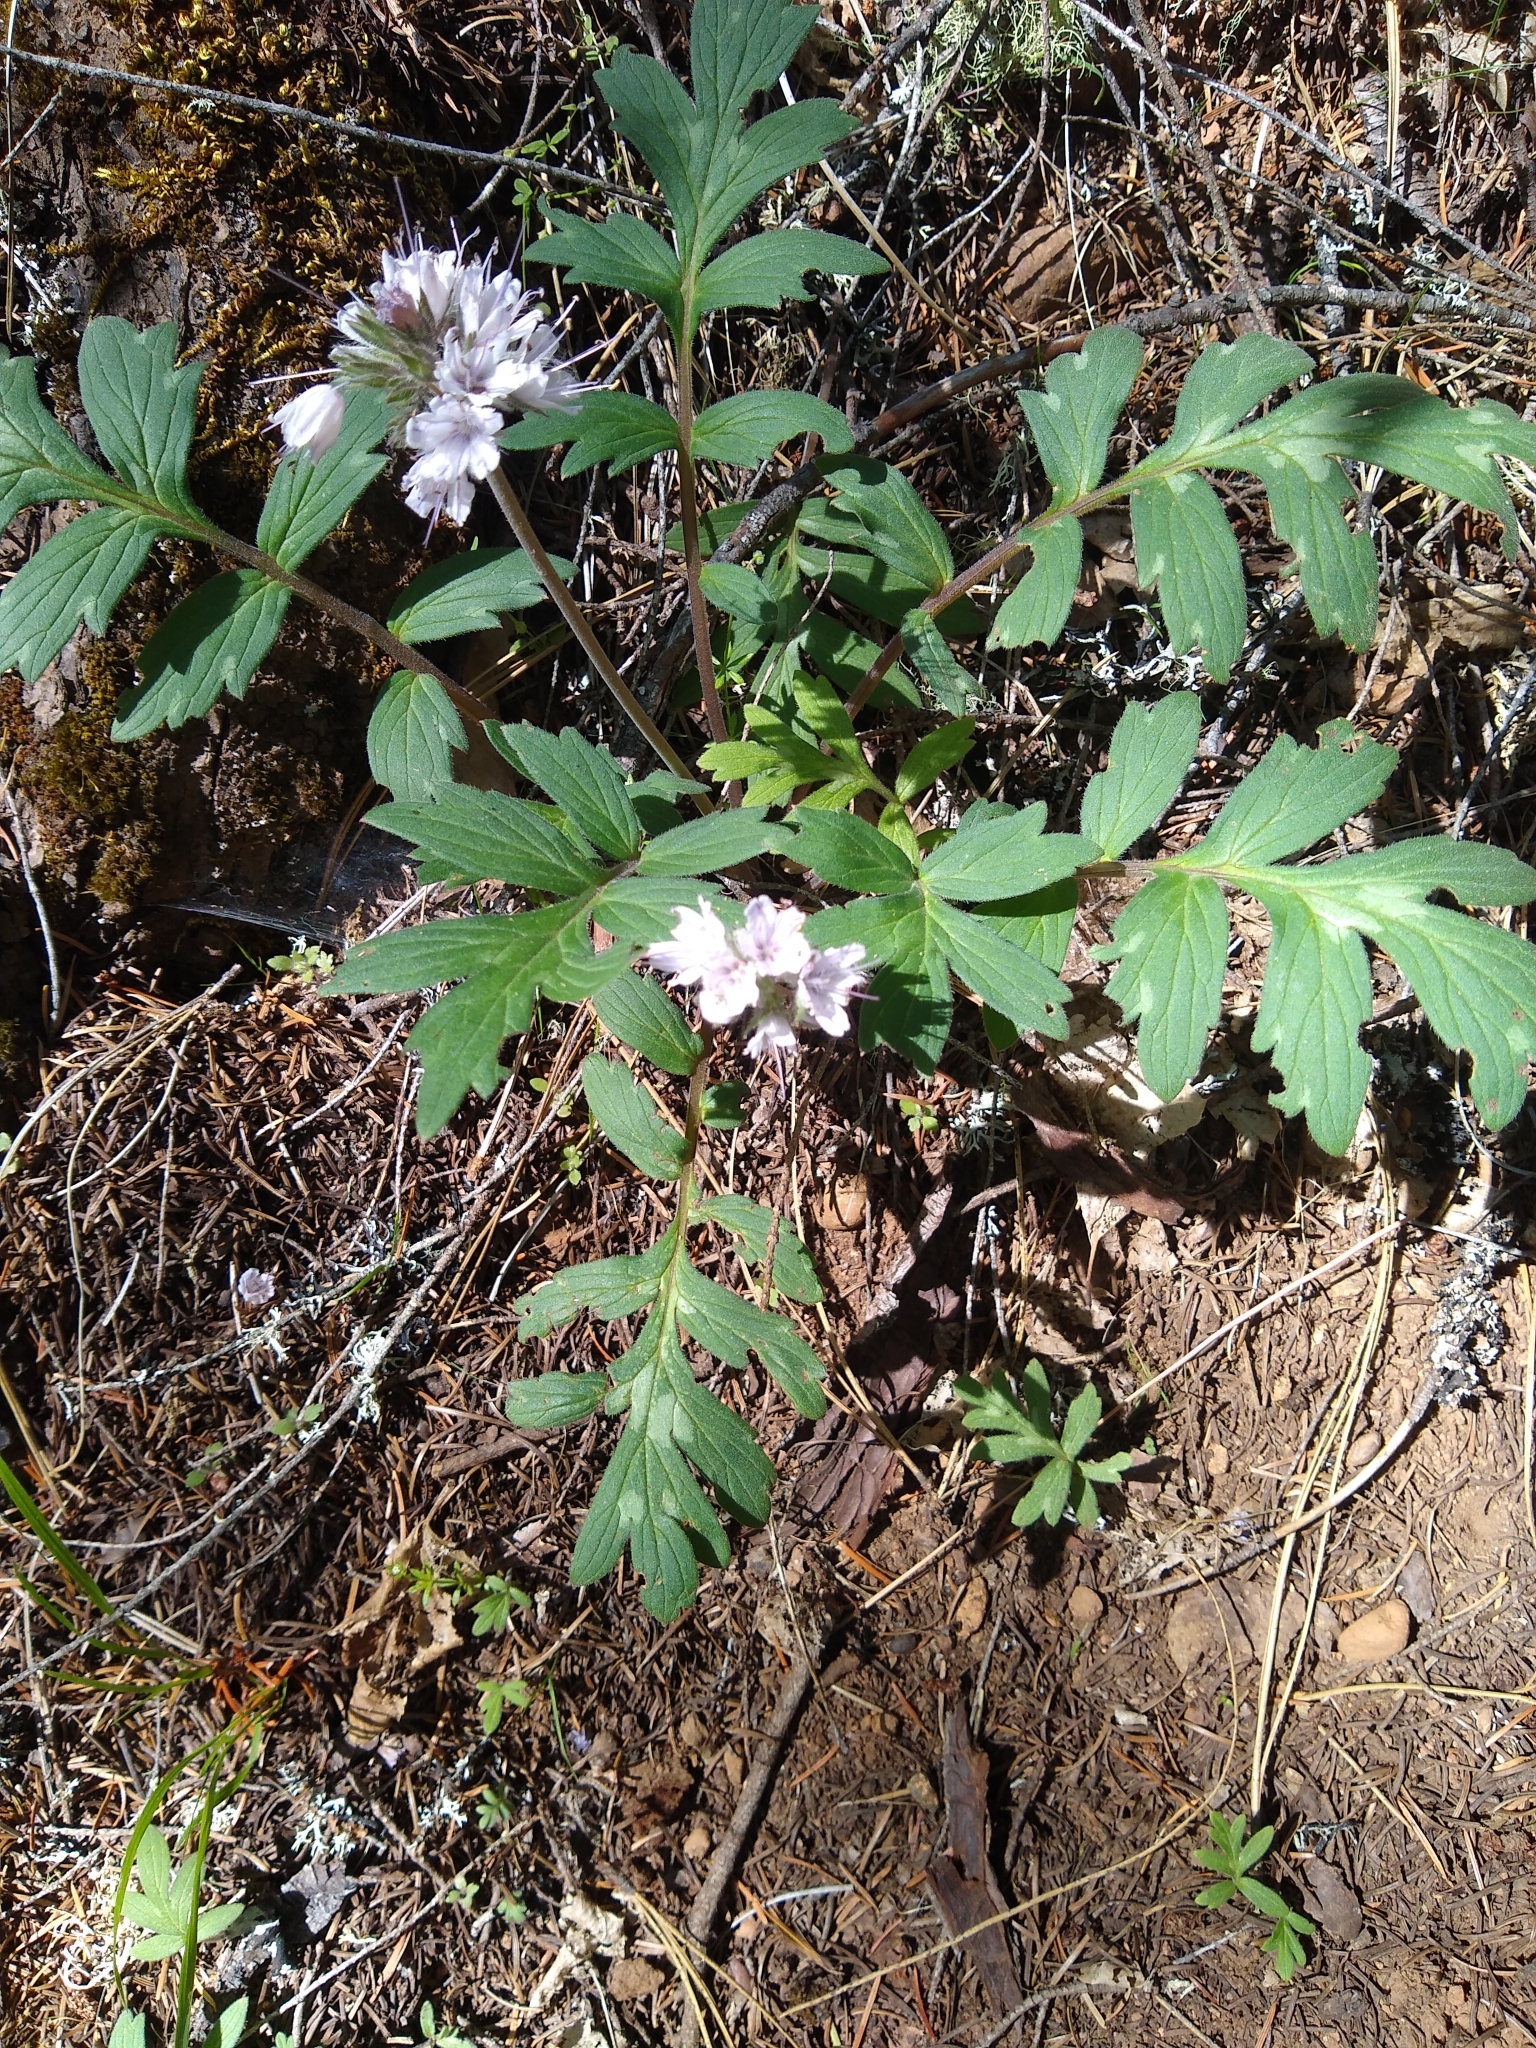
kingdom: Plantae
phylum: Tracheophyta
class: Magnoliopsida
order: Boraginales
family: Hydrophyllaceae
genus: Hydrophyllum
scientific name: Hydrophyllum occidentale
